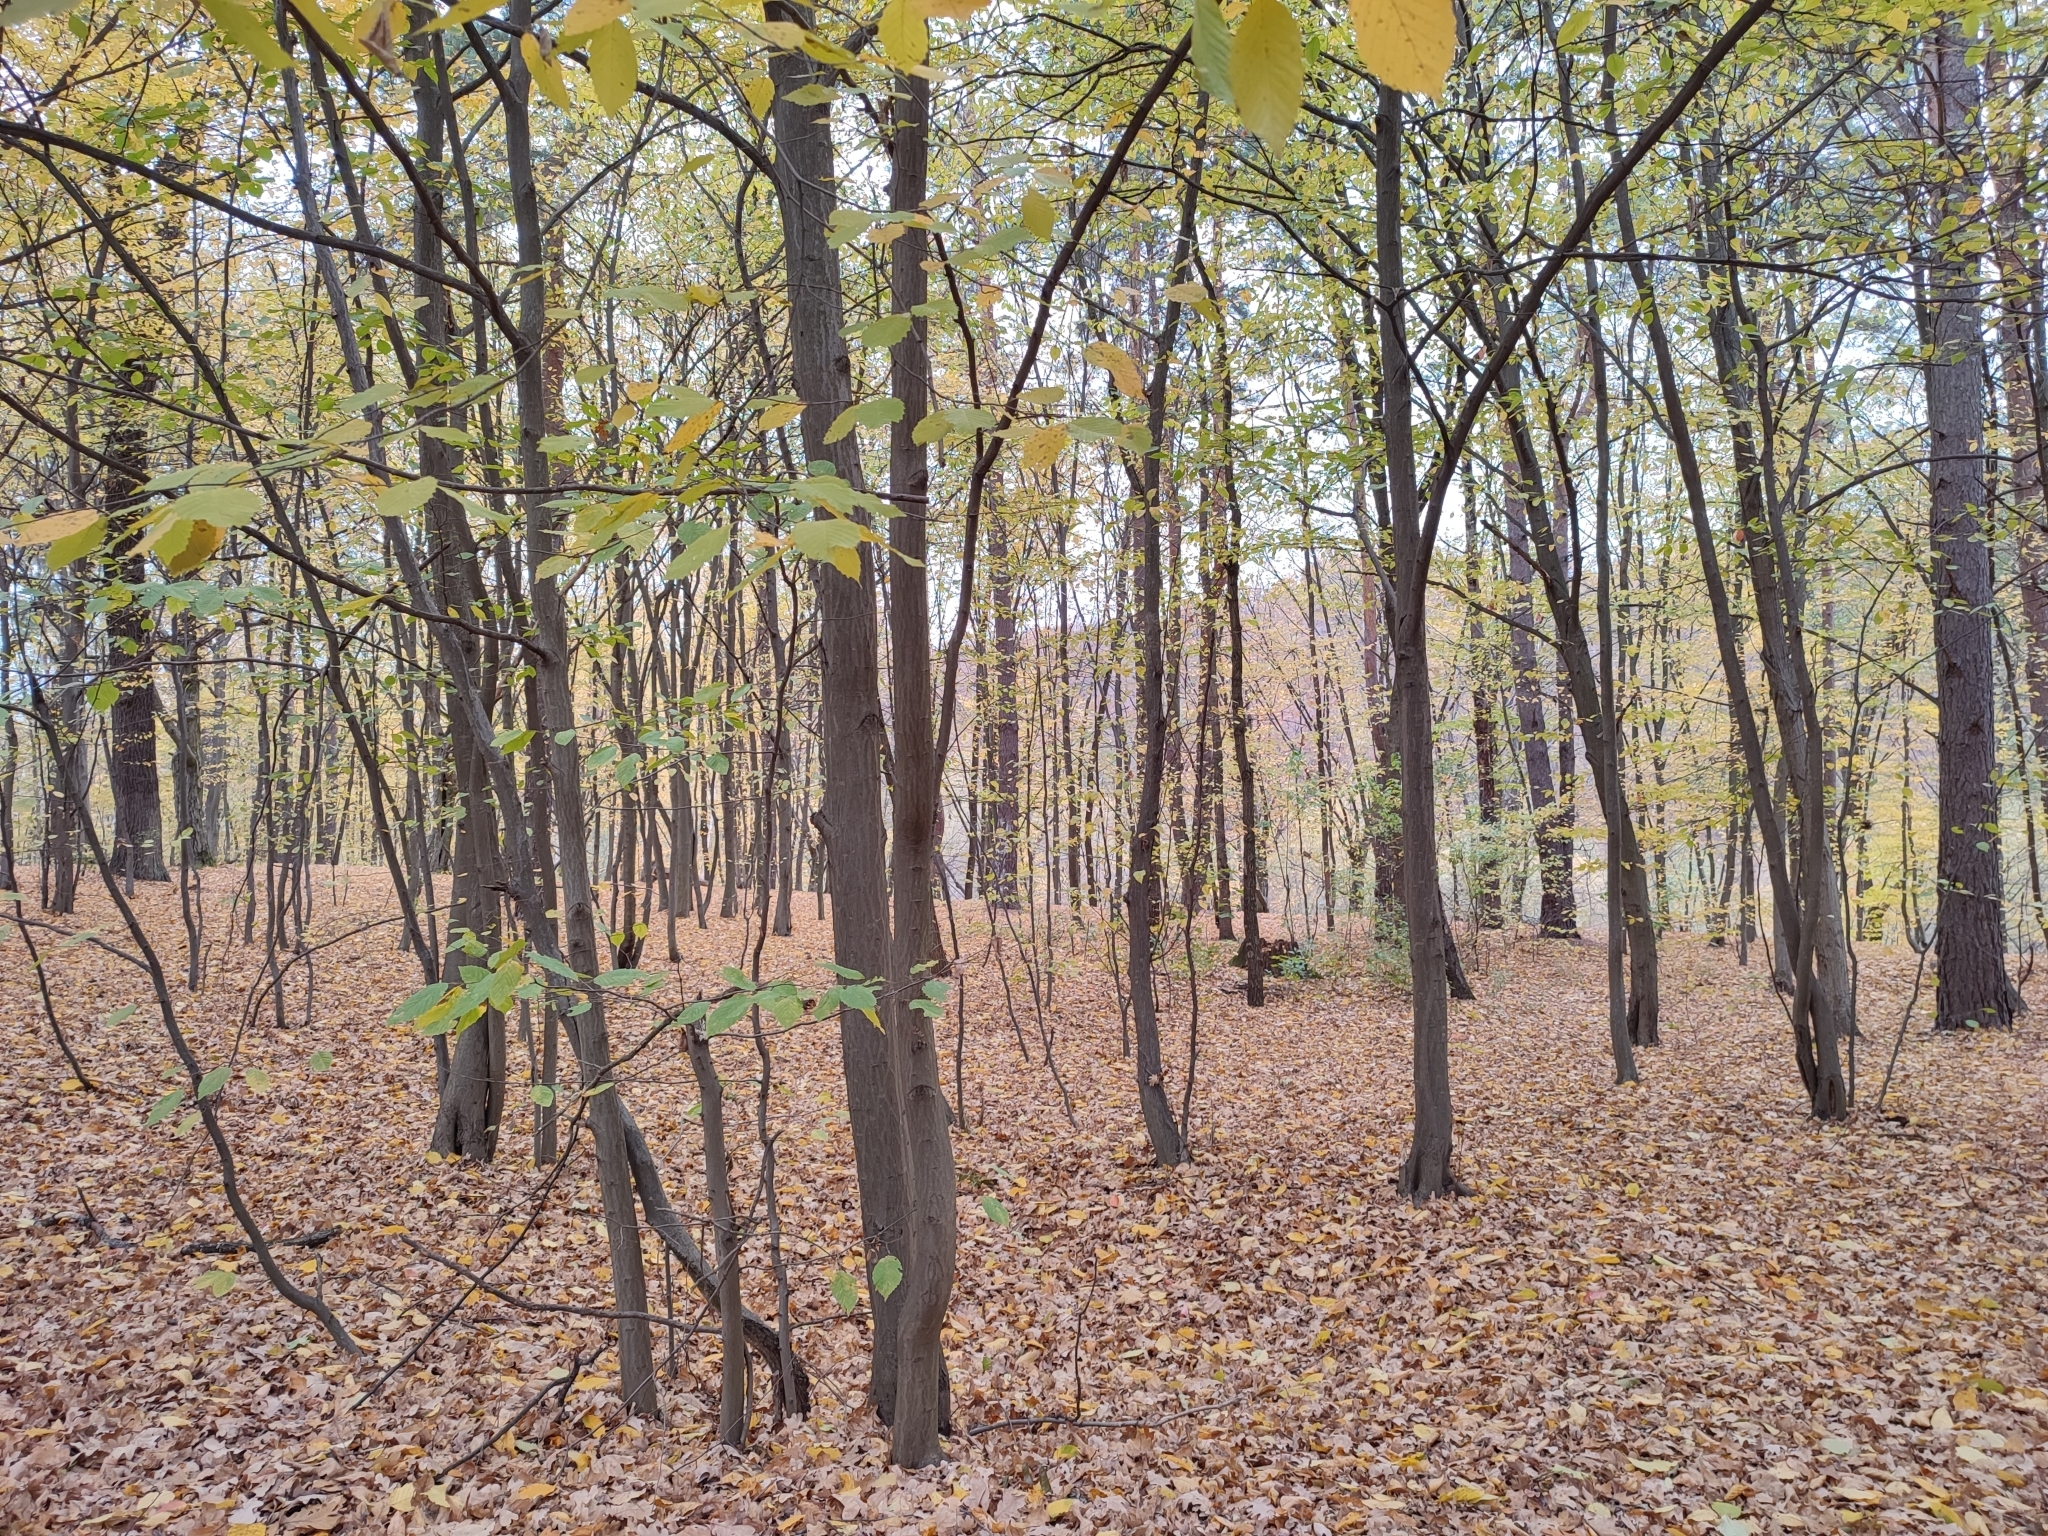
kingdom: Plantae
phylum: Tracheophyta
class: Magnoliopsida
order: Fagales
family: Betulaceae
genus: Carpinus
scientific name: Carpinus betulus
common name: Hornbeam
